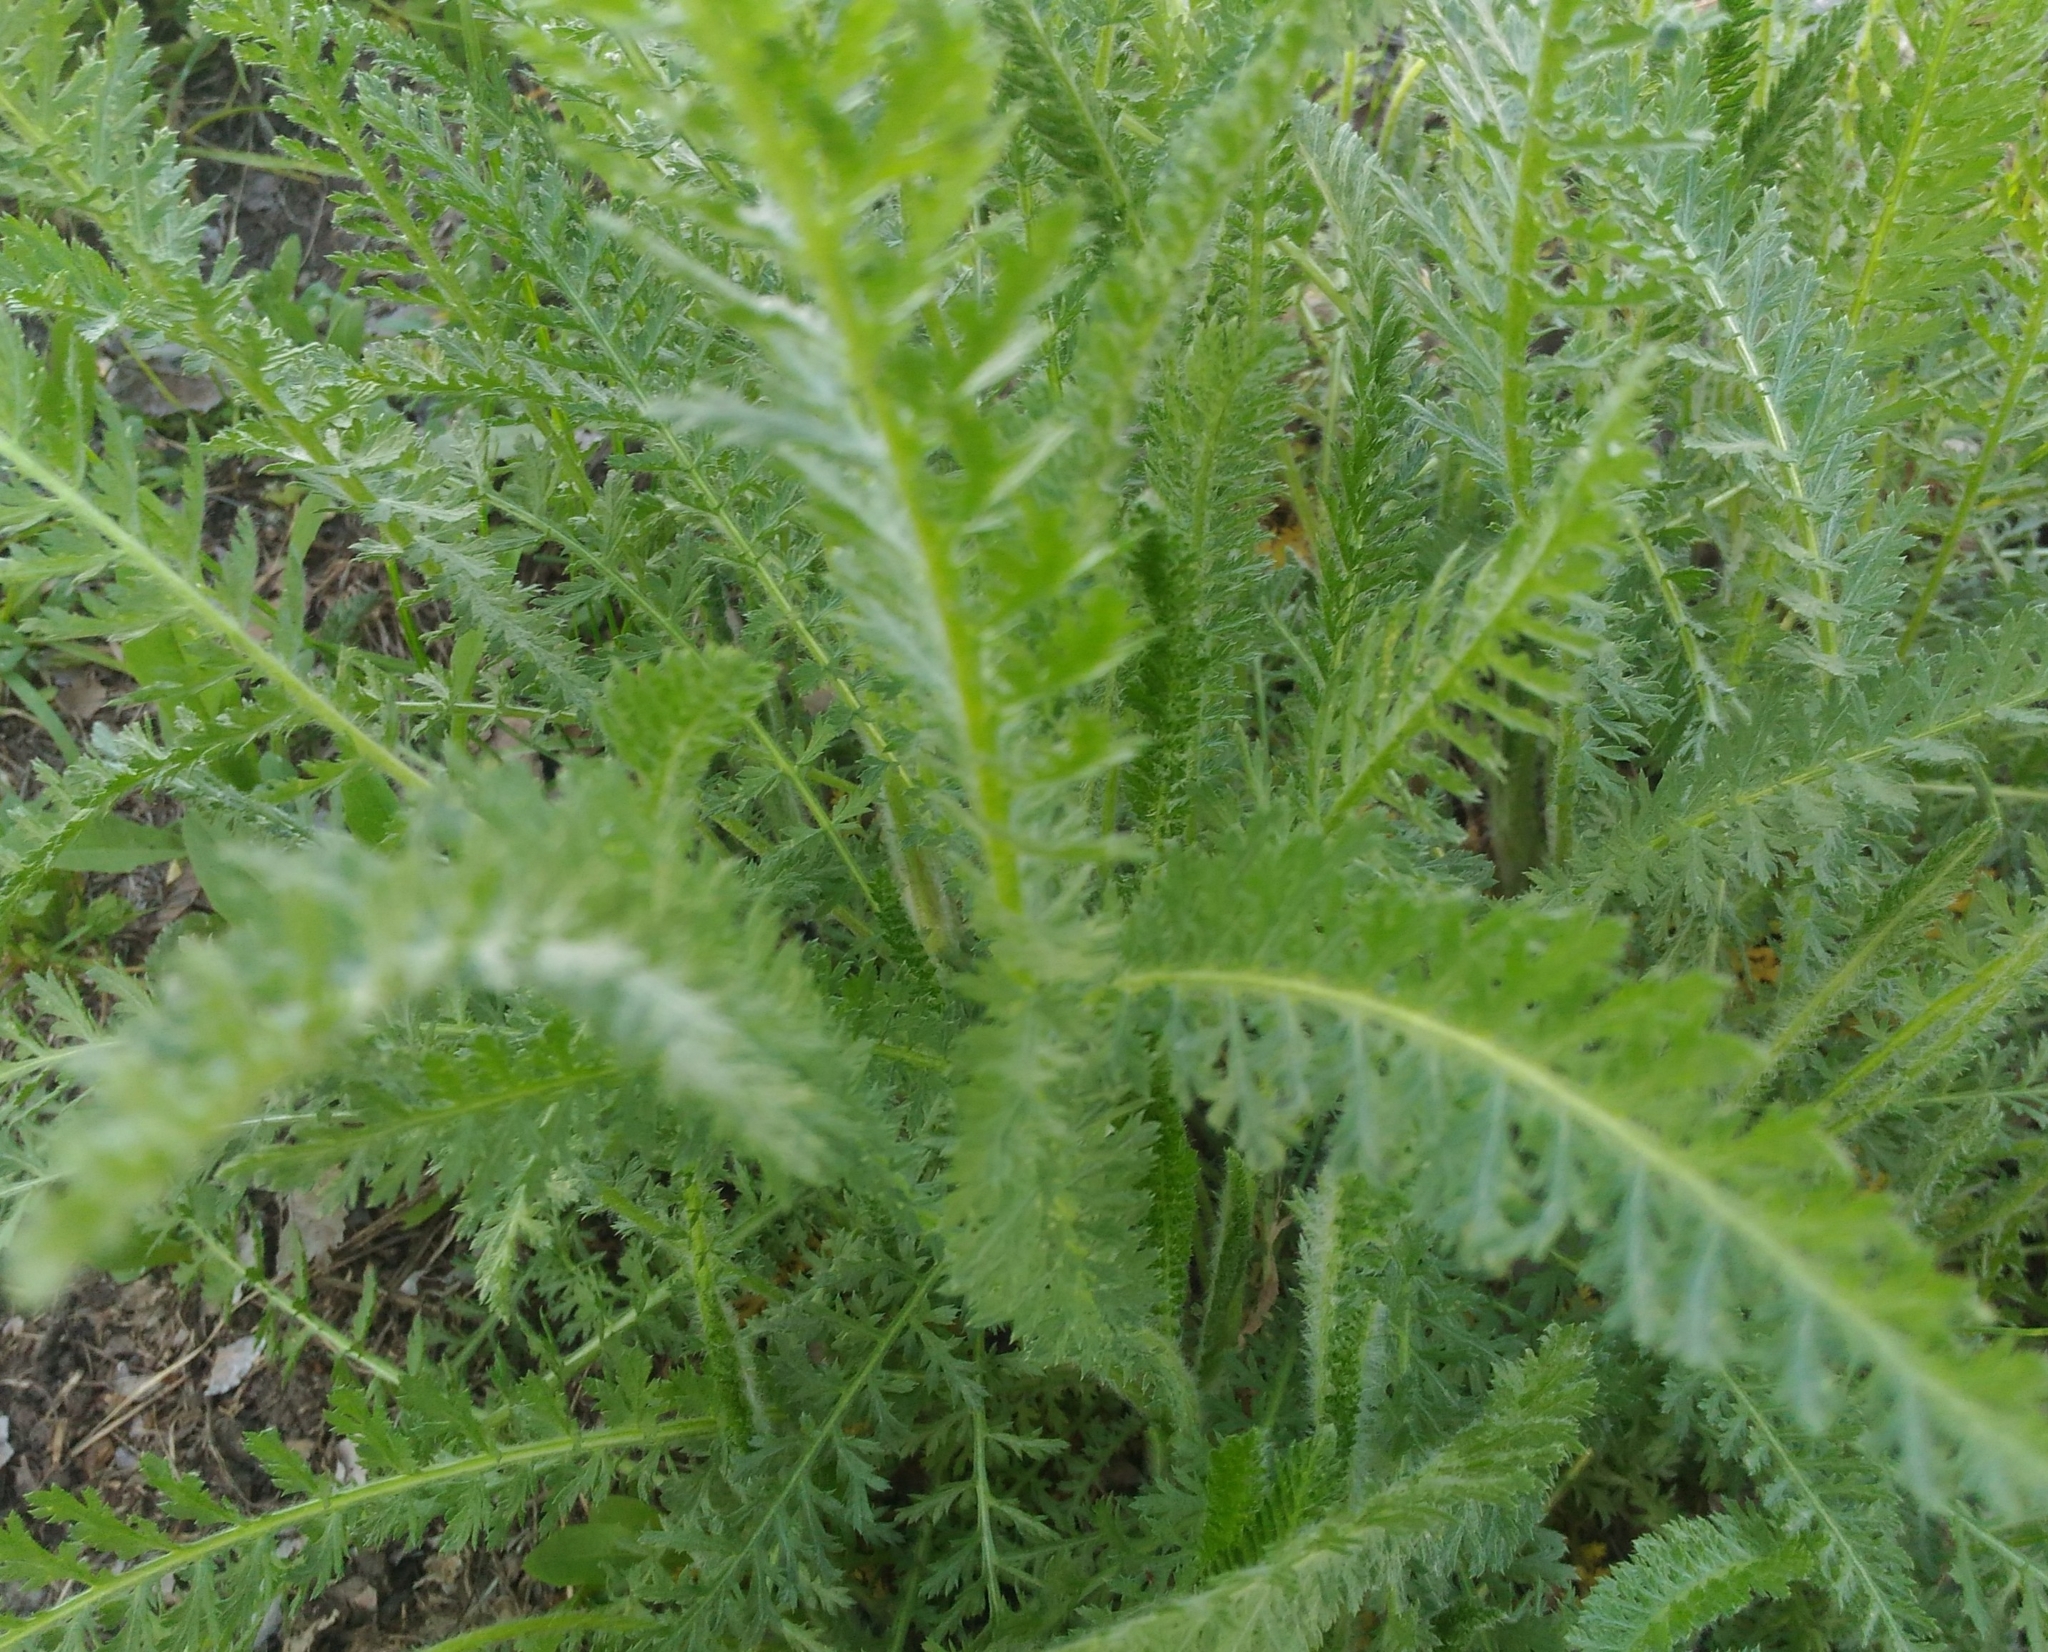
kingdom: Plantae
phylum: Tracheophyta
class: Magnoliopsida
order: Asterales
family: Asteraceae
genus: Achillea
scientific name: Achillea millefolium
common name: Yarrow
